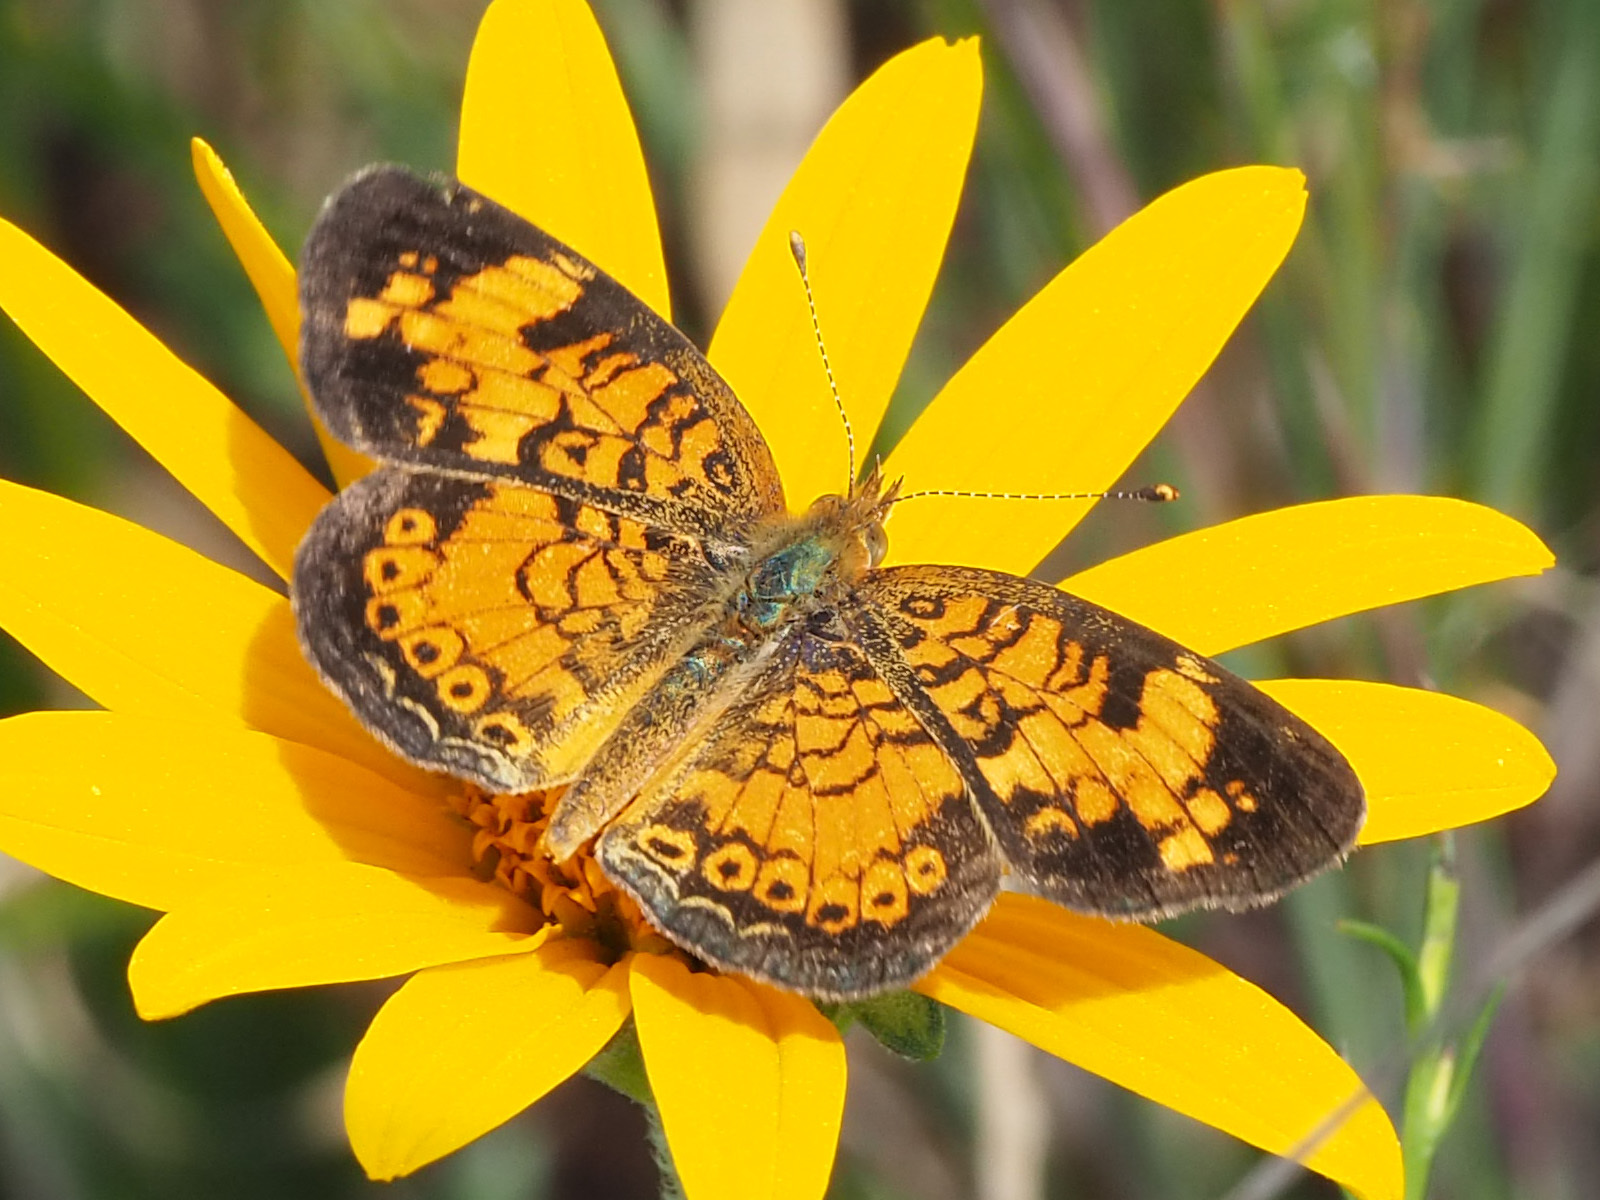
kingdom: Animalia
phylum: Arthropoda
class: Insecta
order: Lepidoptera
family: Nymphalidae
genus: Phyciodes
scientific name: Phyciodes tharos
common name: Pearl crescent
